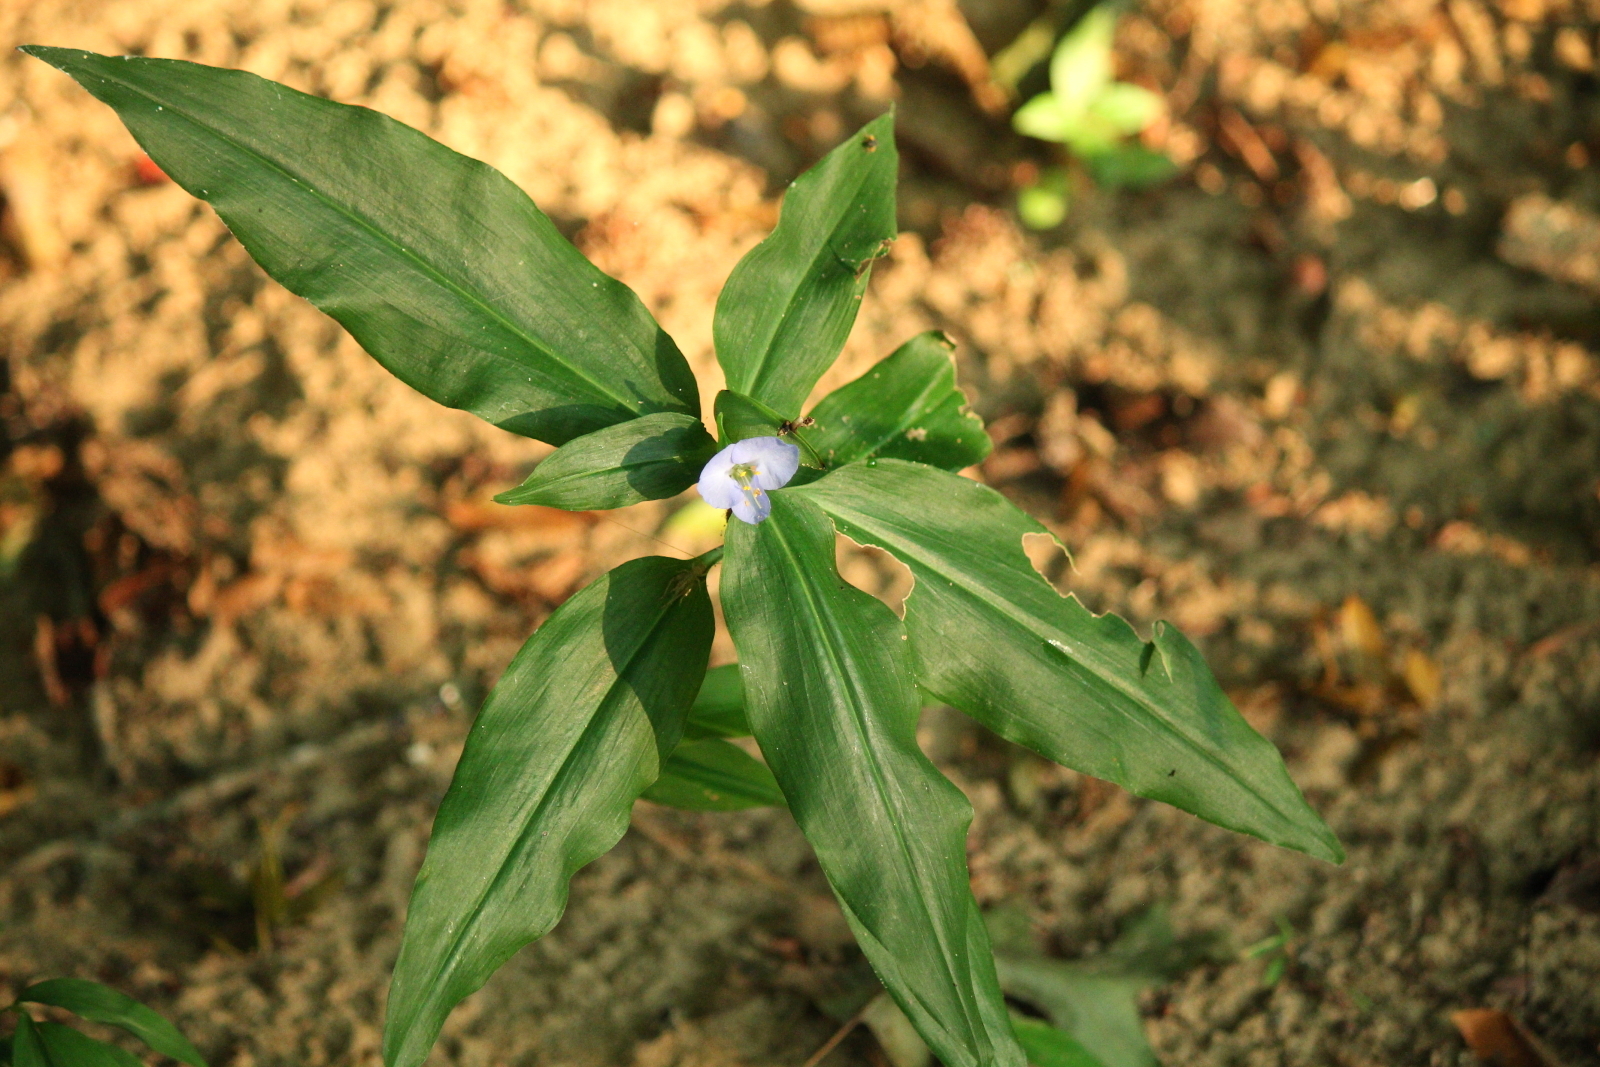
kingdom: Plantae
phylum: Tracheophyta
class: Liliopsida
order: Commelinales
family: Commelinaceae
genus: Commelina
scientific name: Commelina virginica
